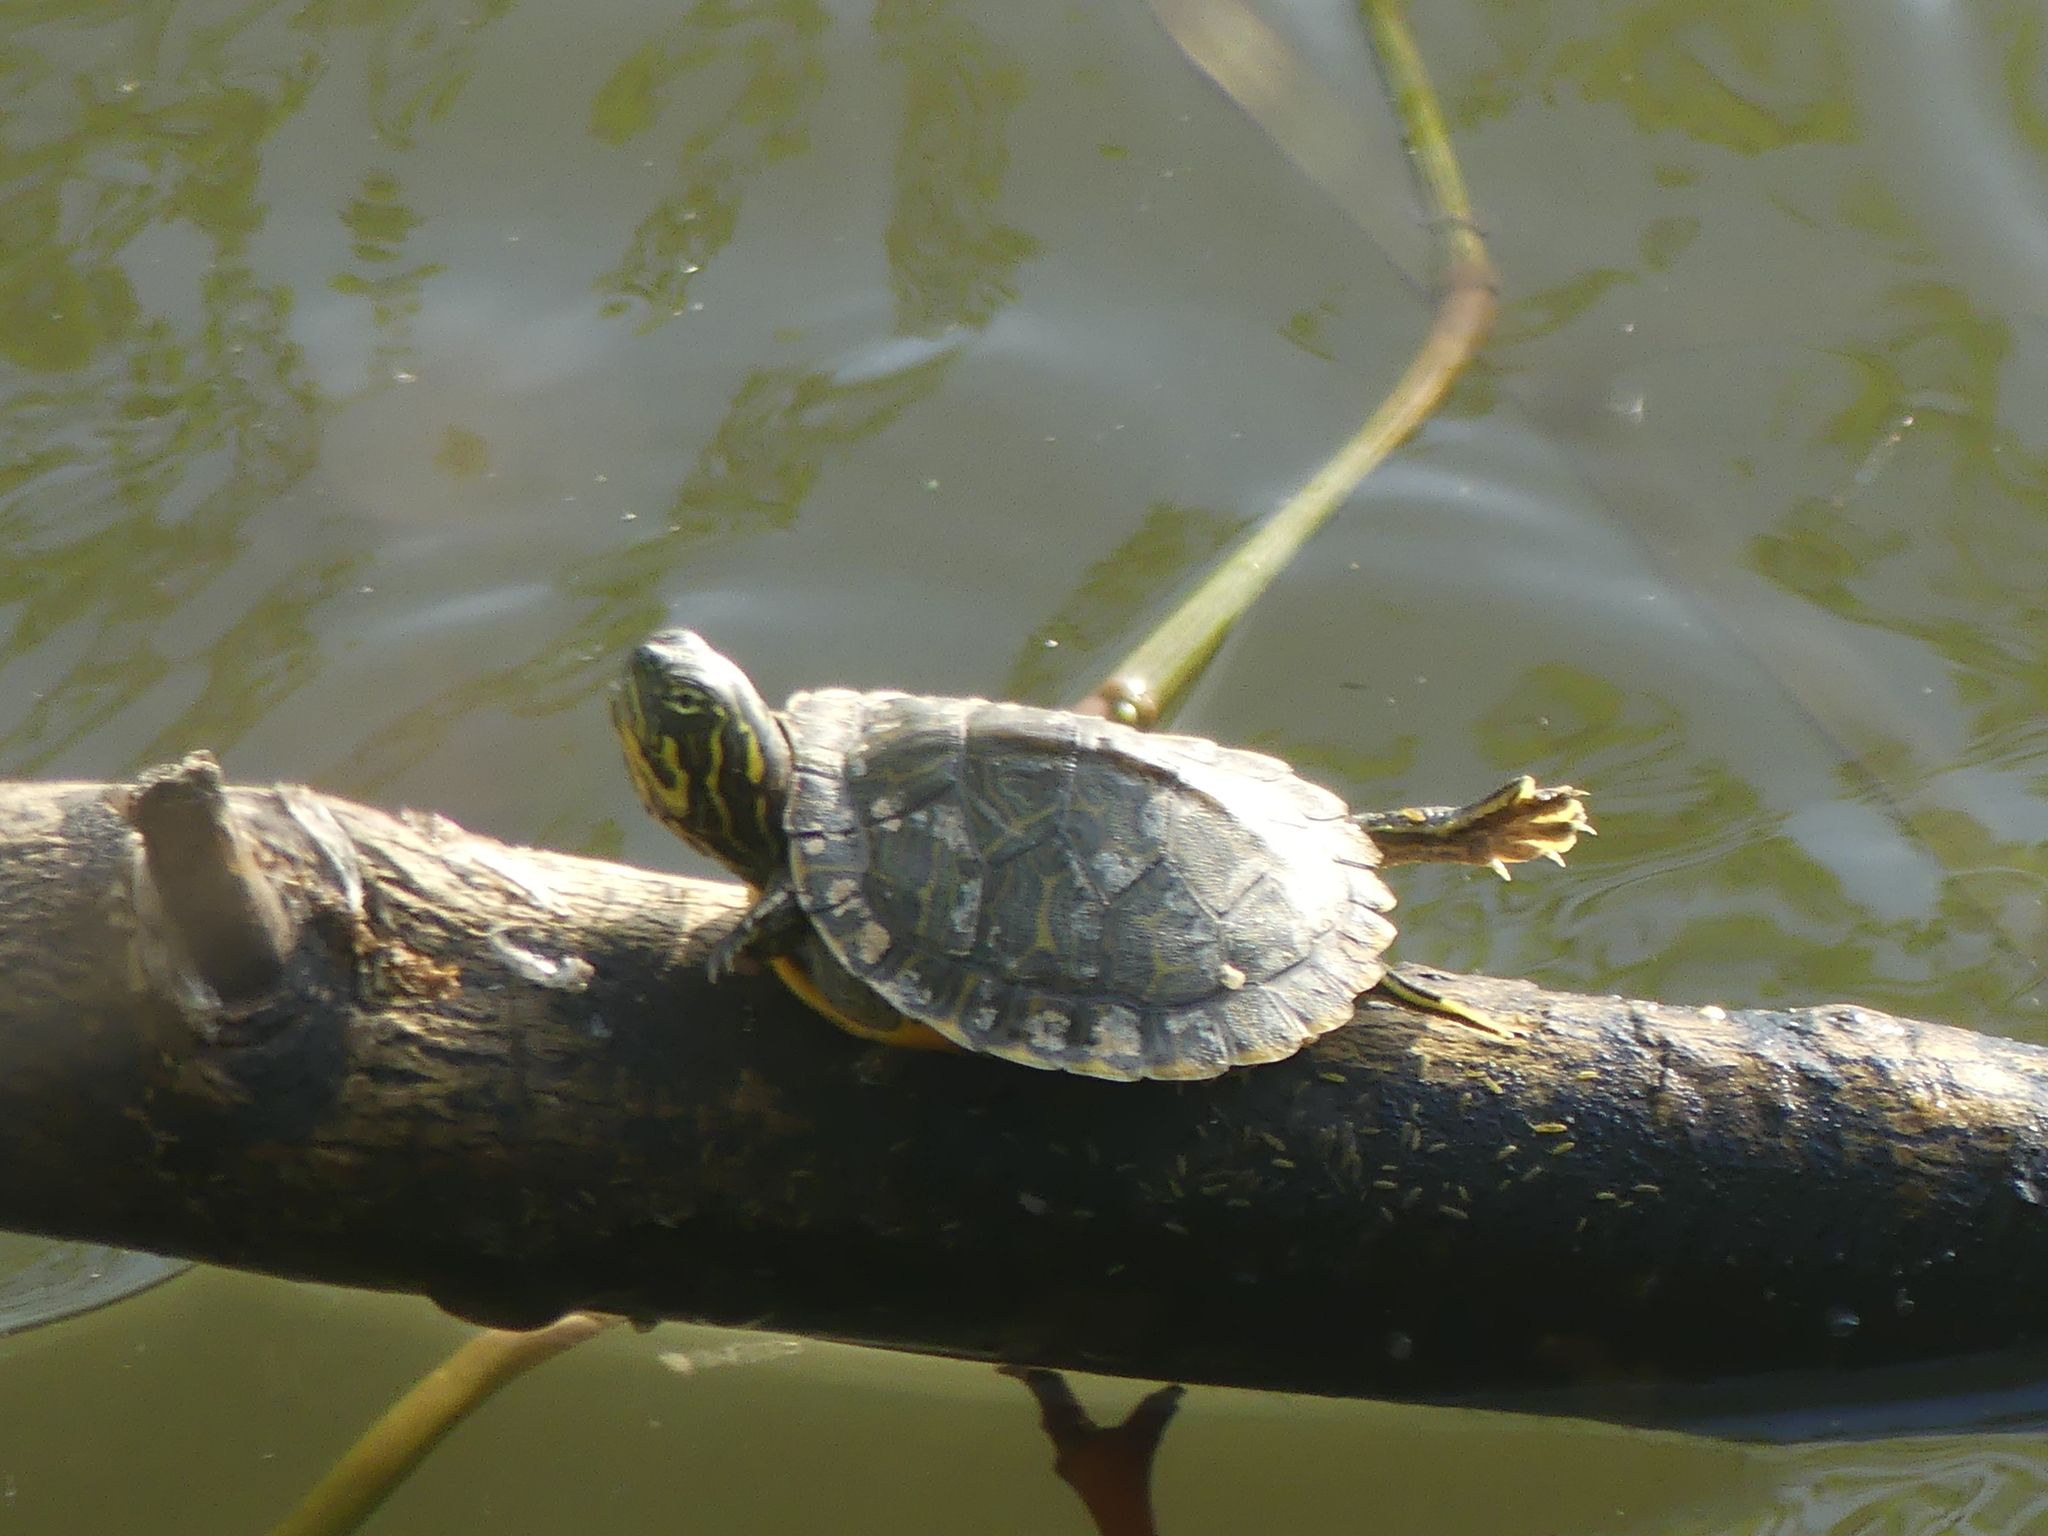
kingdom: Animalia
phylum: Chordata
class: Testudines
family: Emydidae
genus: Pseudemys
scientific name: Pseudemys concinna
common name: Eastern river cooter
